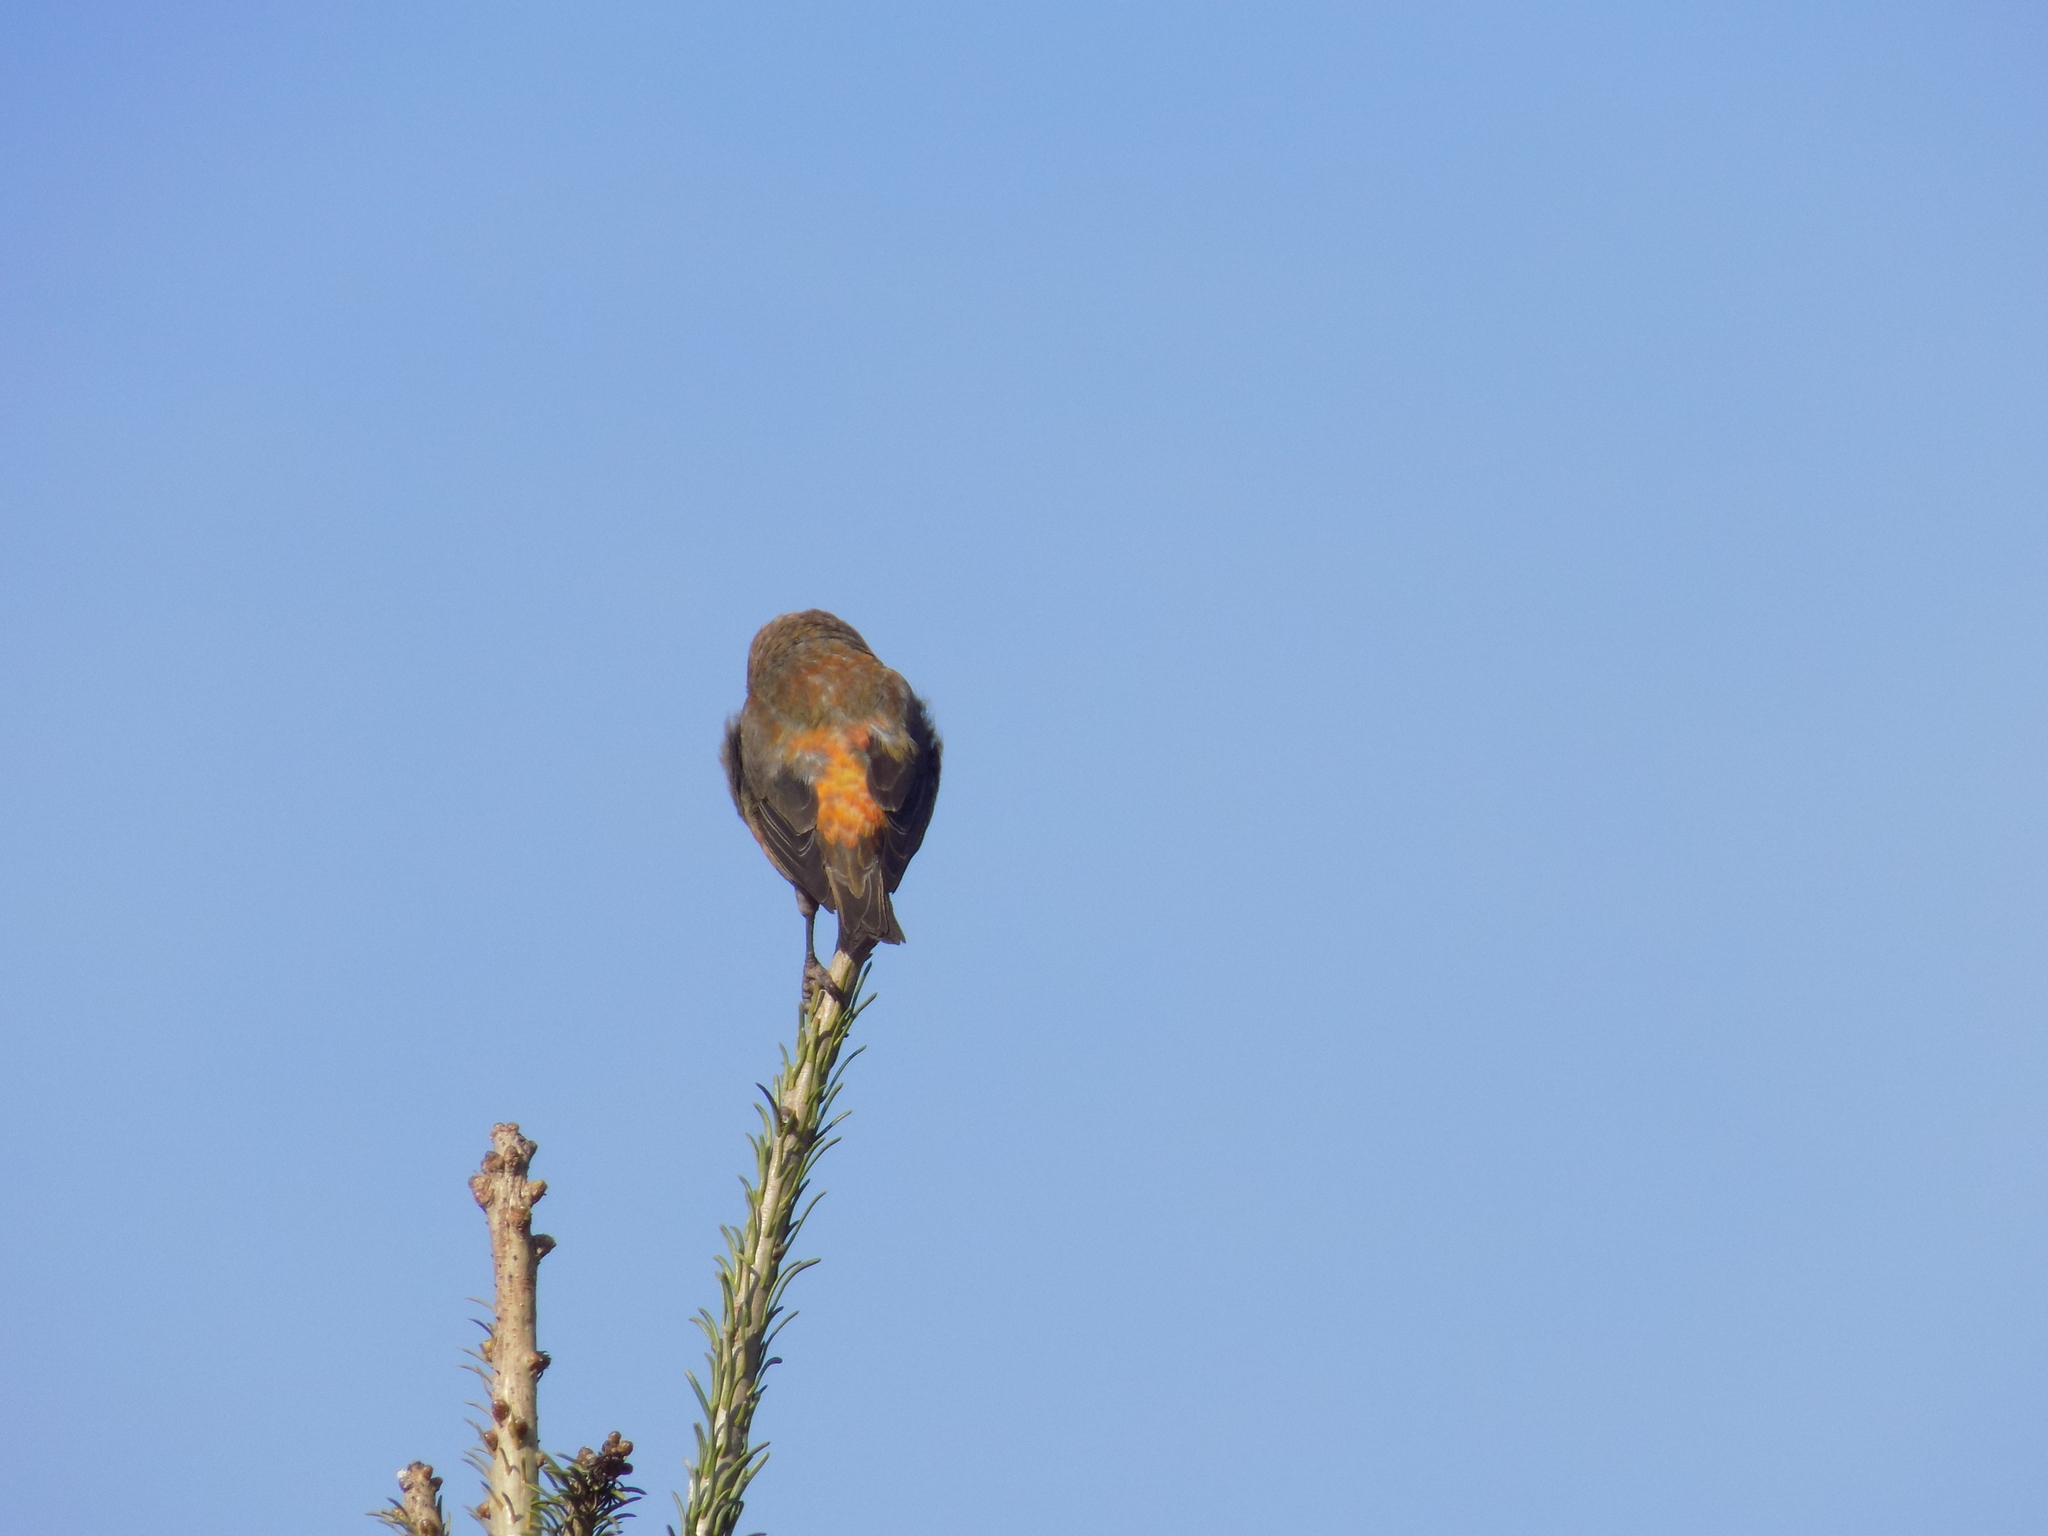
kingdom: Animalia
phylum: Chordata
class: Aves
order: Passeriformes
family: Fringillidae
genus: Loxia
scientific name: Loxia curvirostra
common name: Red crossbill
